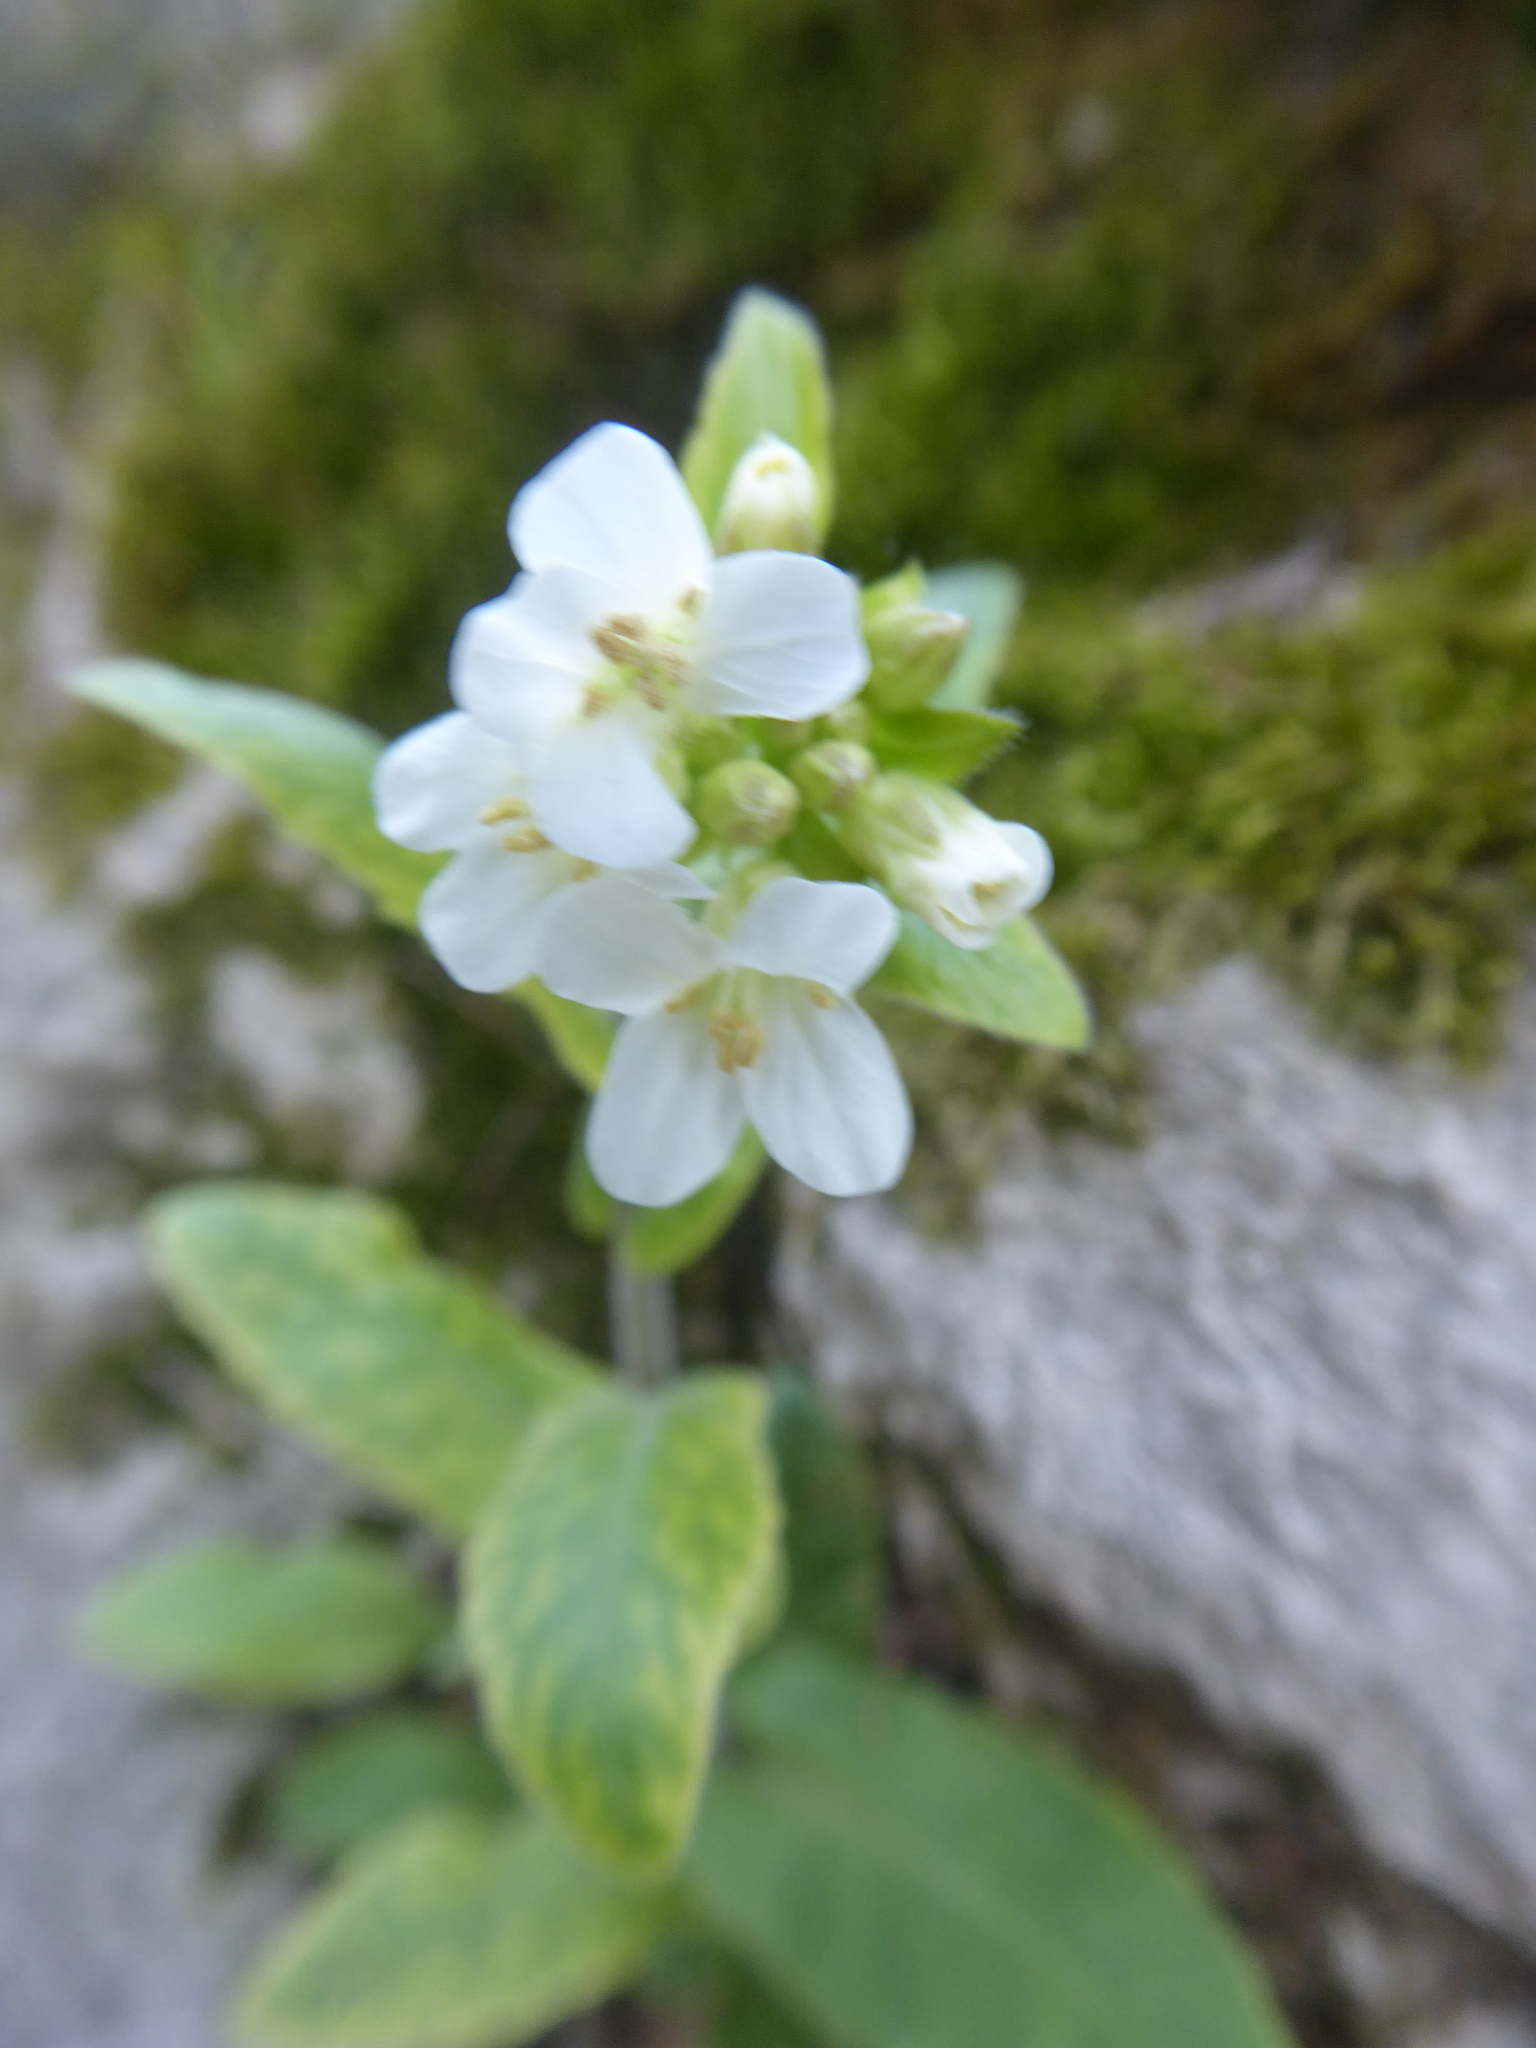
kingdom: Plantae
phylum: Tracheophyta
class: Magnoliopsida
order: Brassicales
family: Brassicaceae
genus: Pseudoturritis
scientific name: Pseudoturritis turrita
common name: Tower cress
